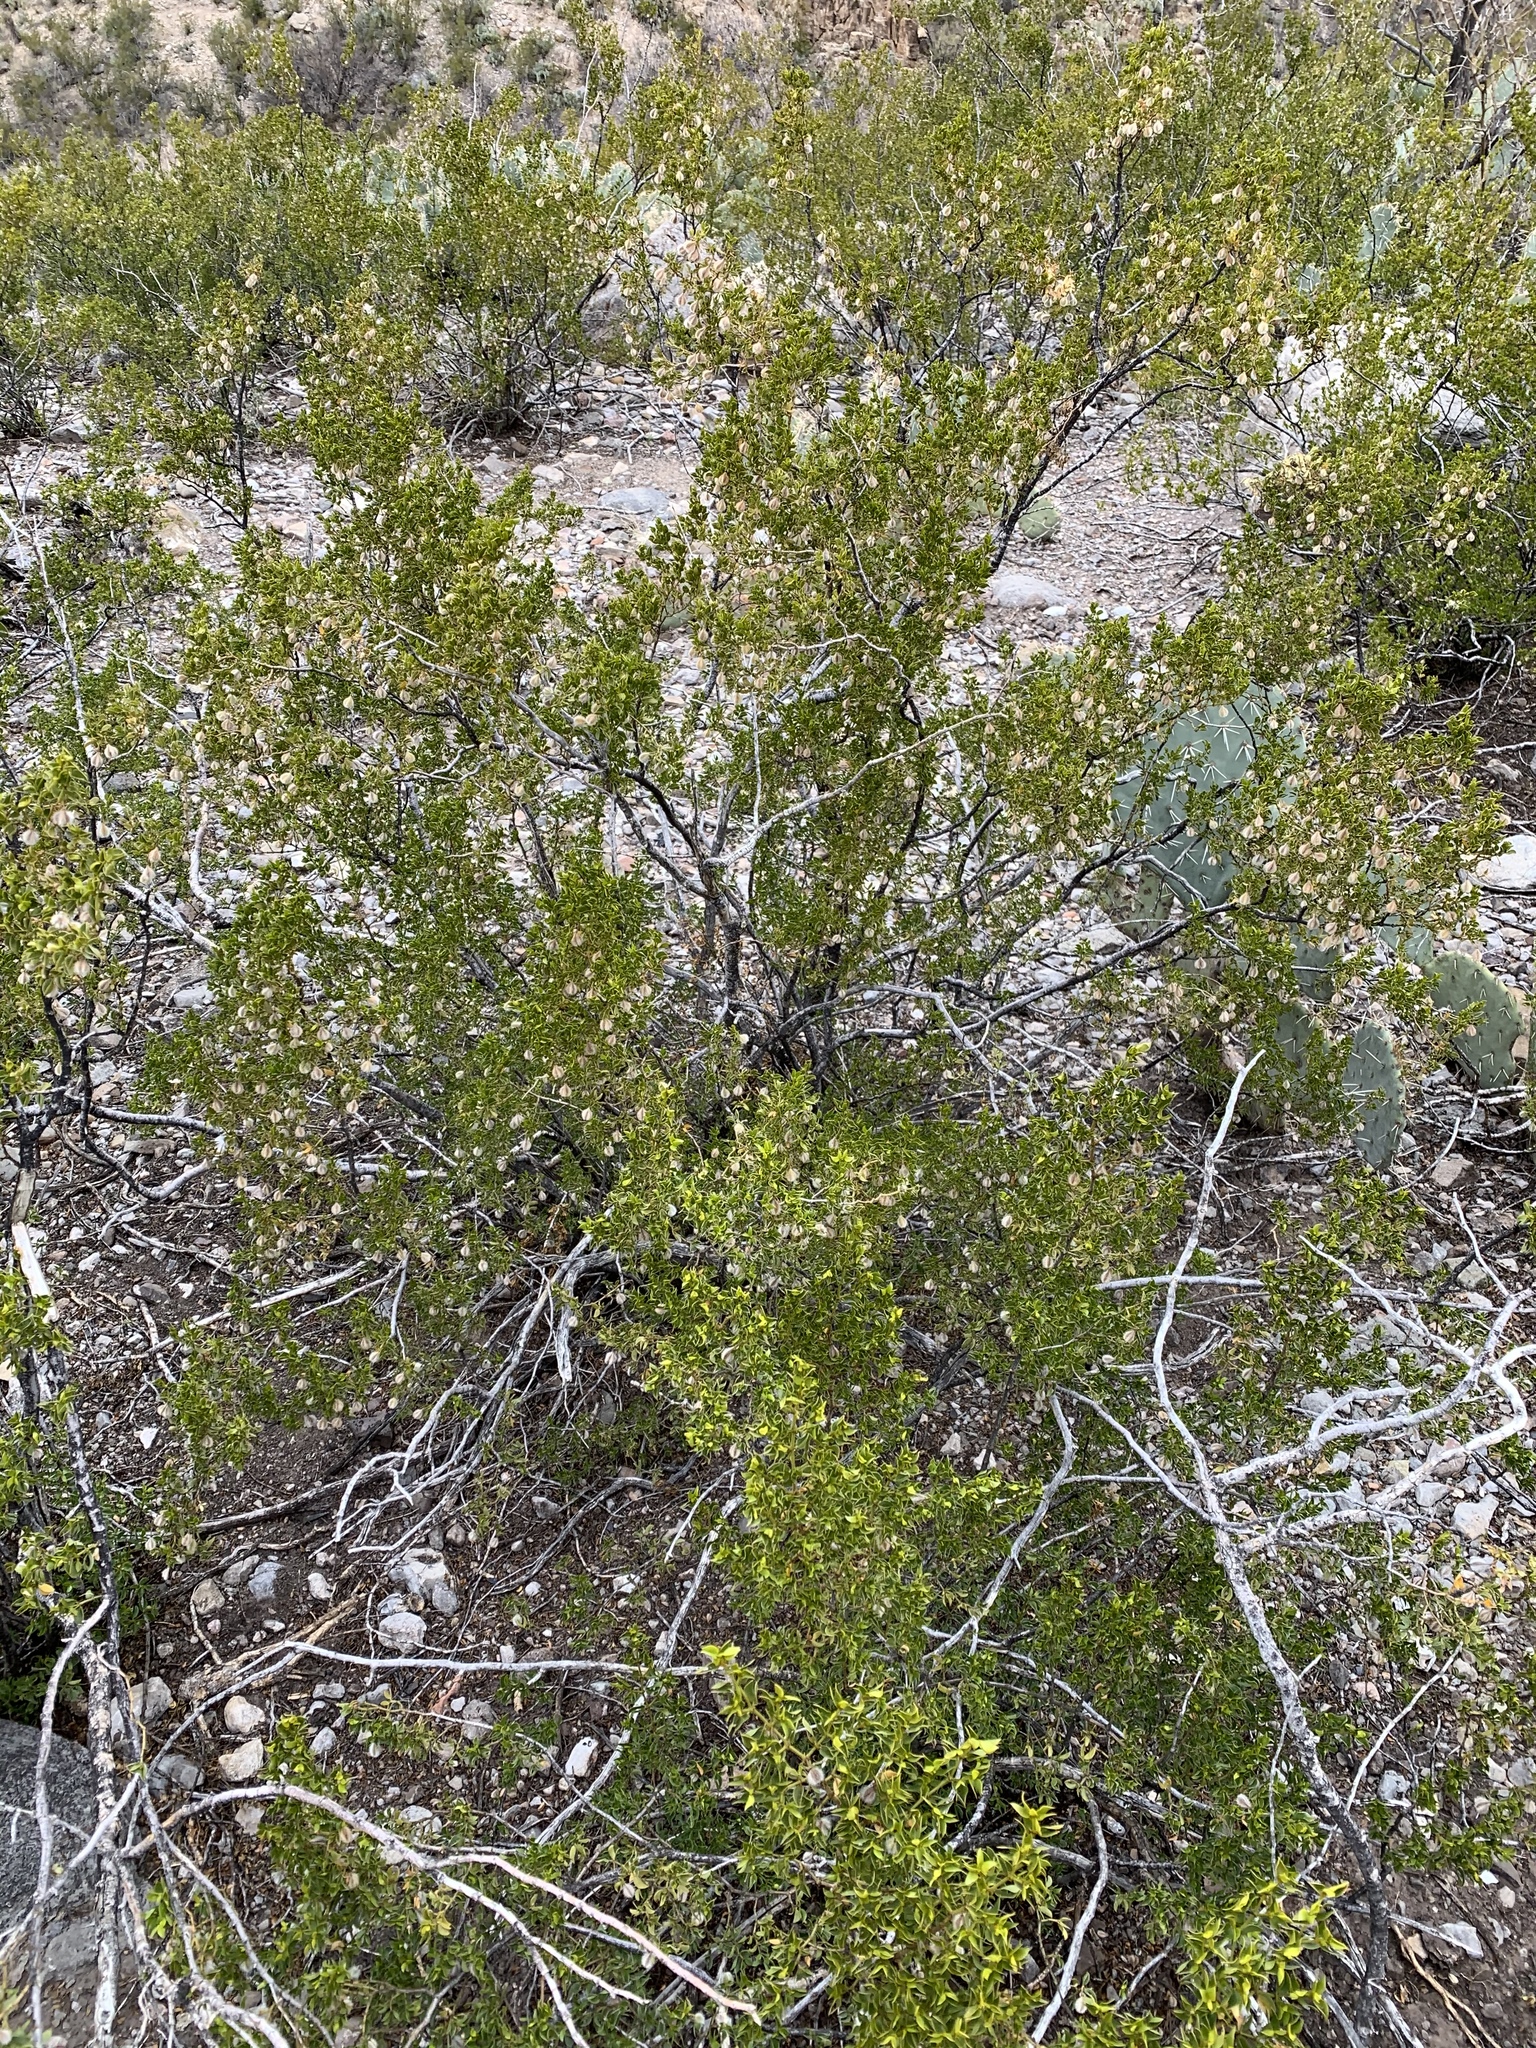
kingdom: Plantae
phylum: Tracheophyta
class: Magnoliopsida
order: Zygophyllales
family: Zygophyllaceae
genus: Larrea
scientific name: Larrea tridentata
